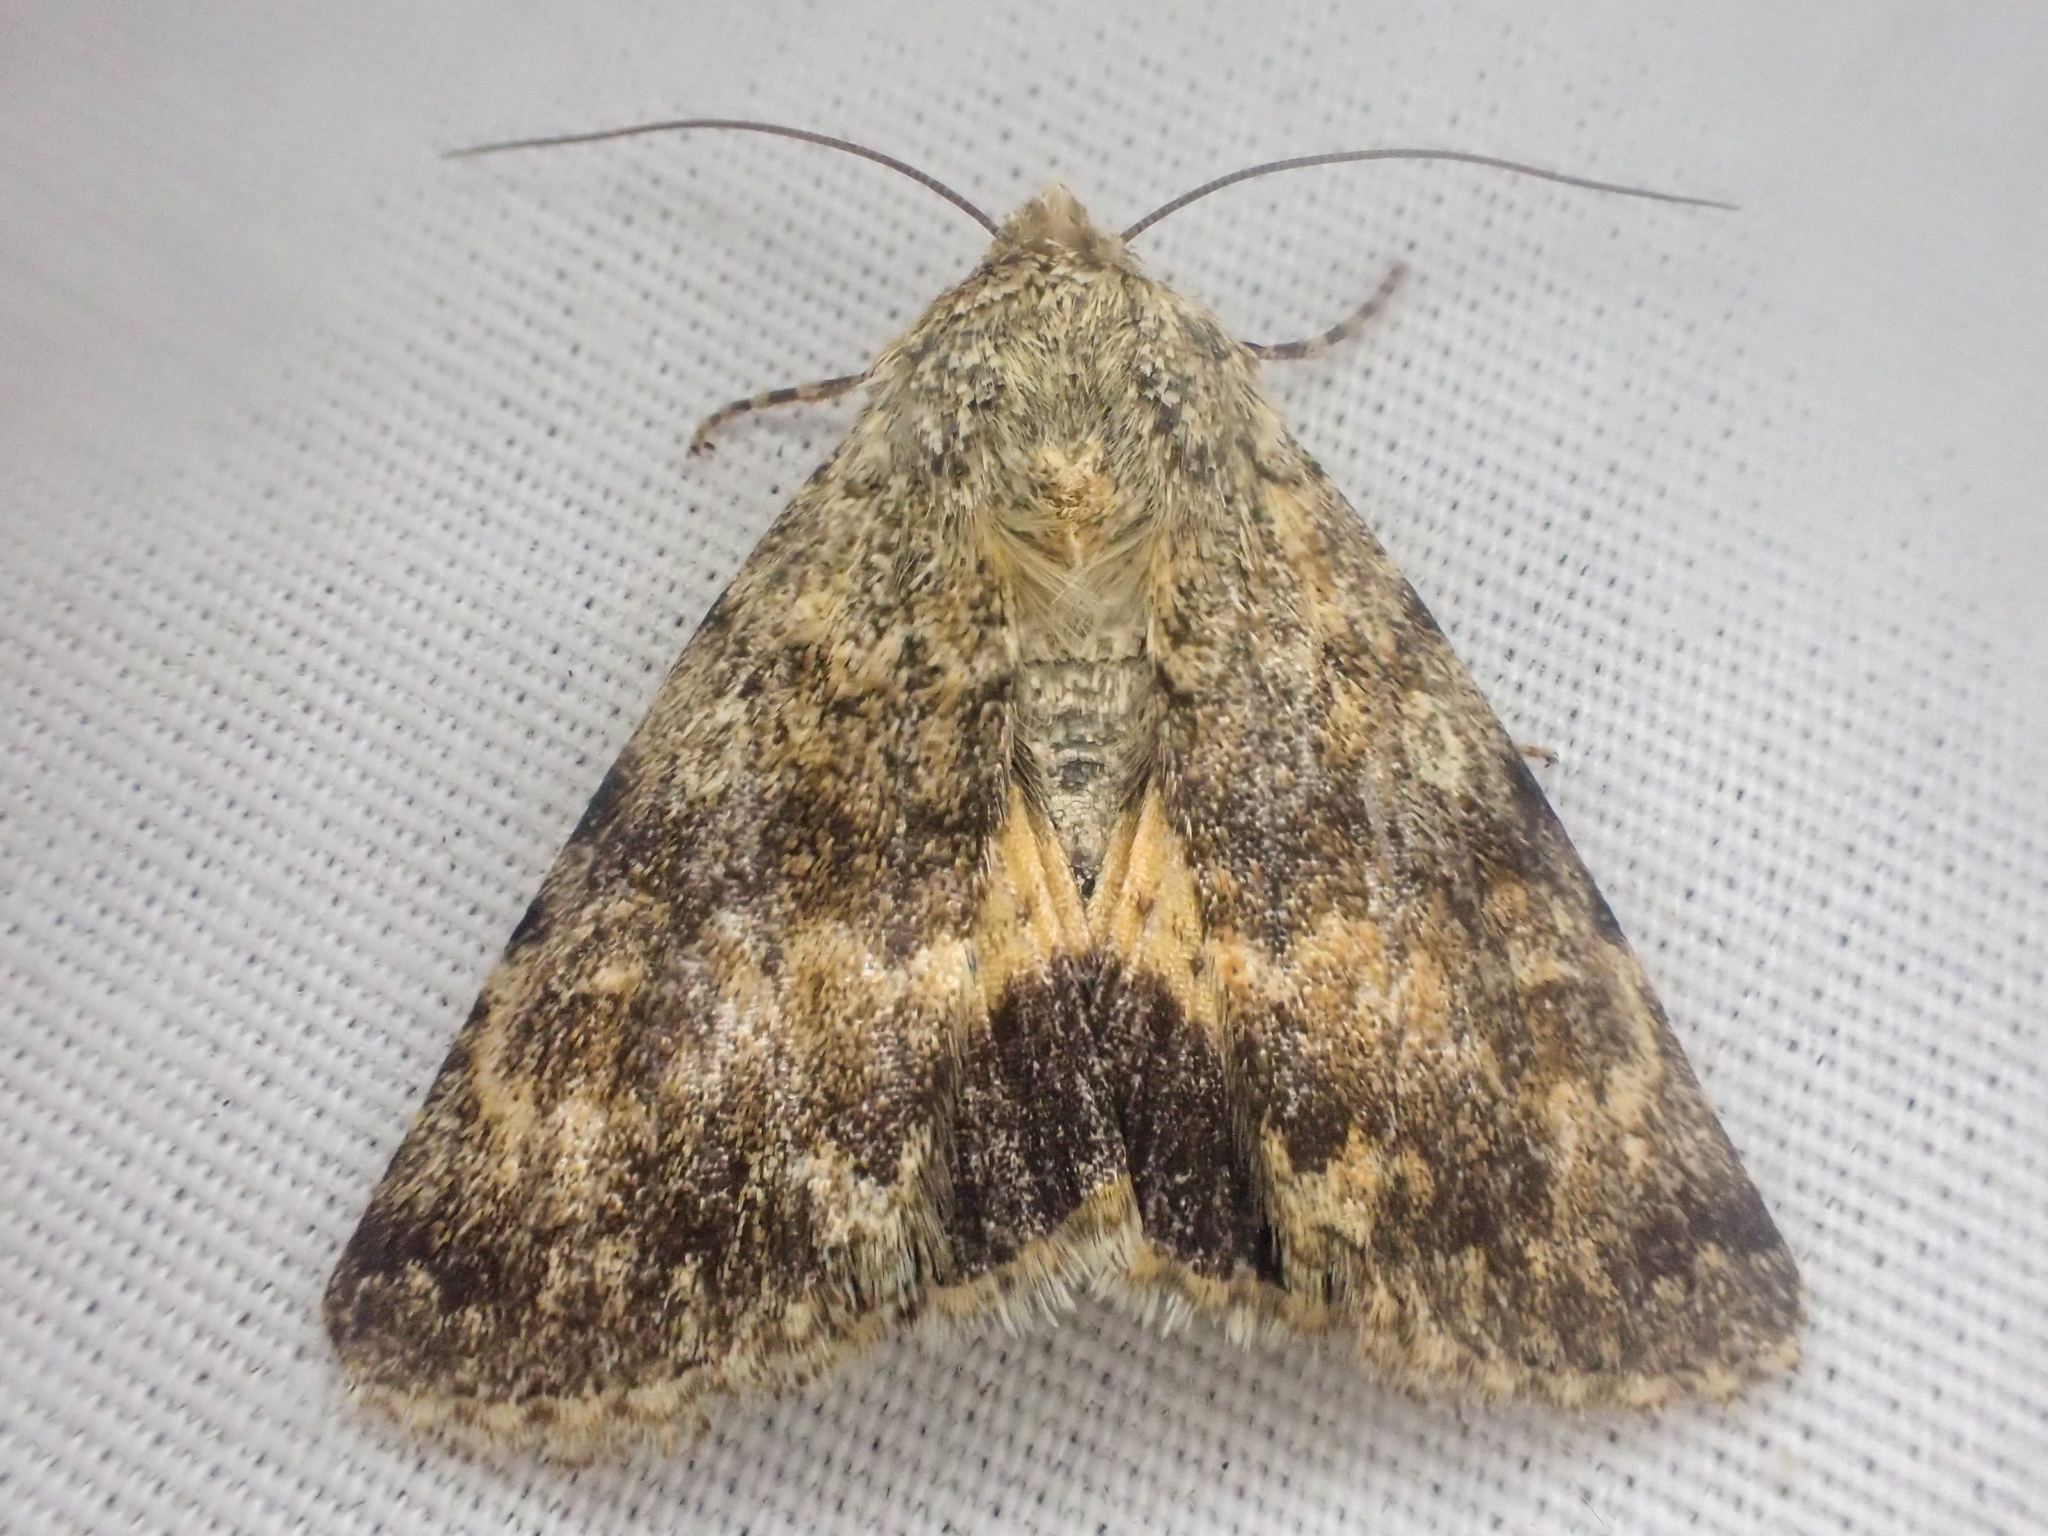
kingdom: Animalia
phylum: Arthropoda
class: Insecta
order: Lepidoptera
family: Noctuidae
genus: Sympistis
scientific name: Sympistis sandaraca
